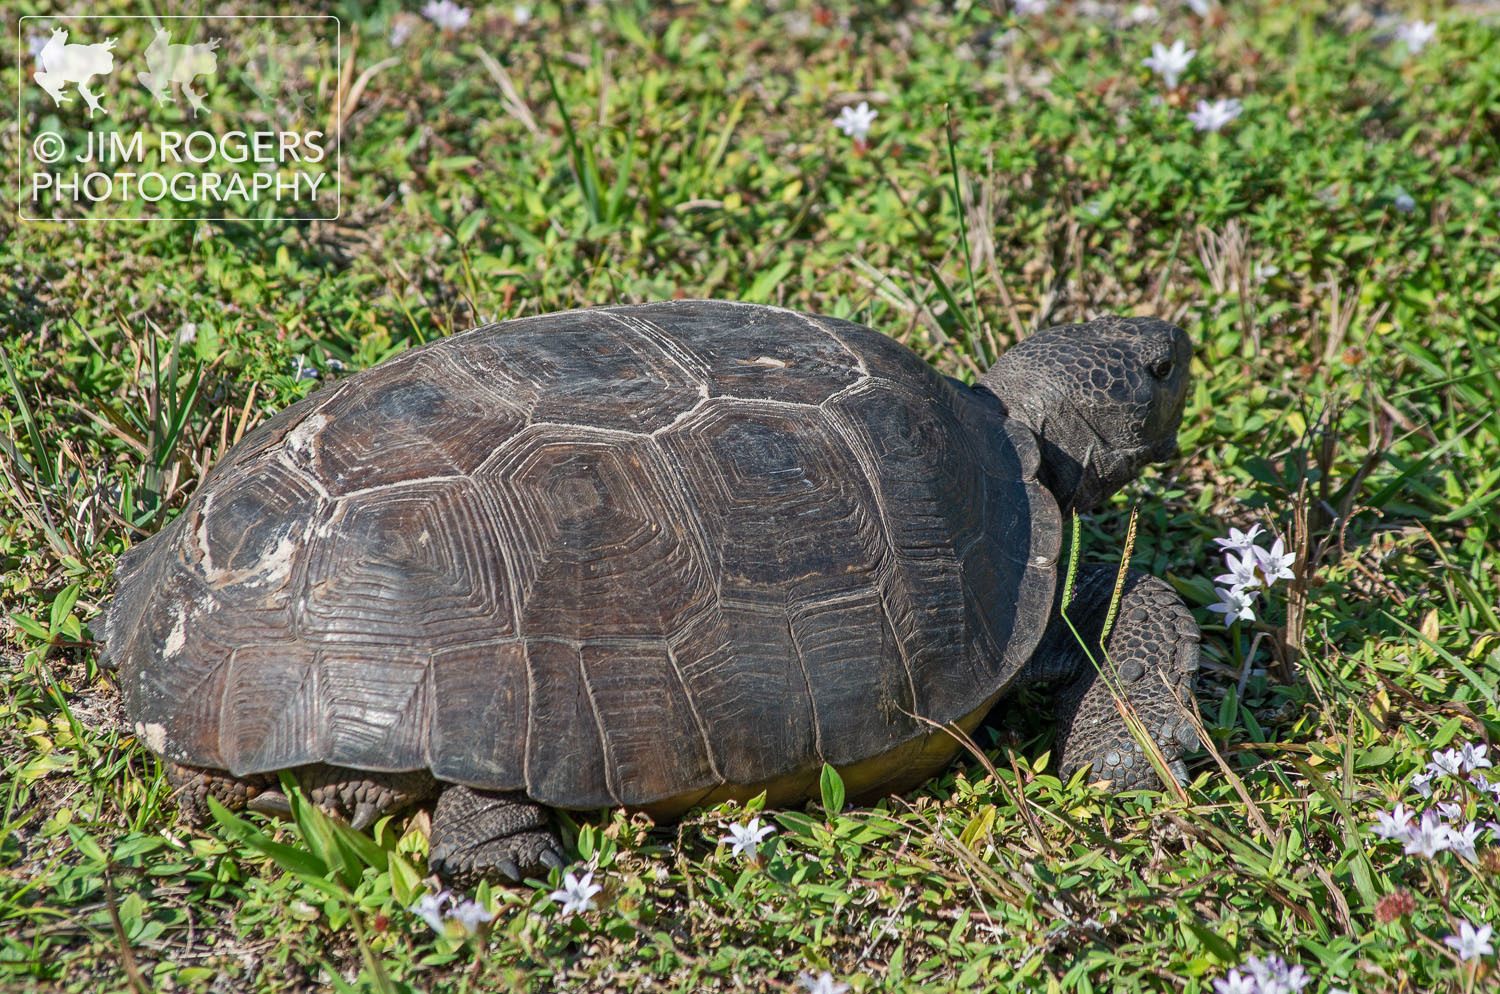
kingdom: Animalia
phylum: Chordata
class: Testudines
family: Testudinidae
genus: Gopherus
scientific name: Gopherus polyphemus
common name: Florida gopher tortoise
